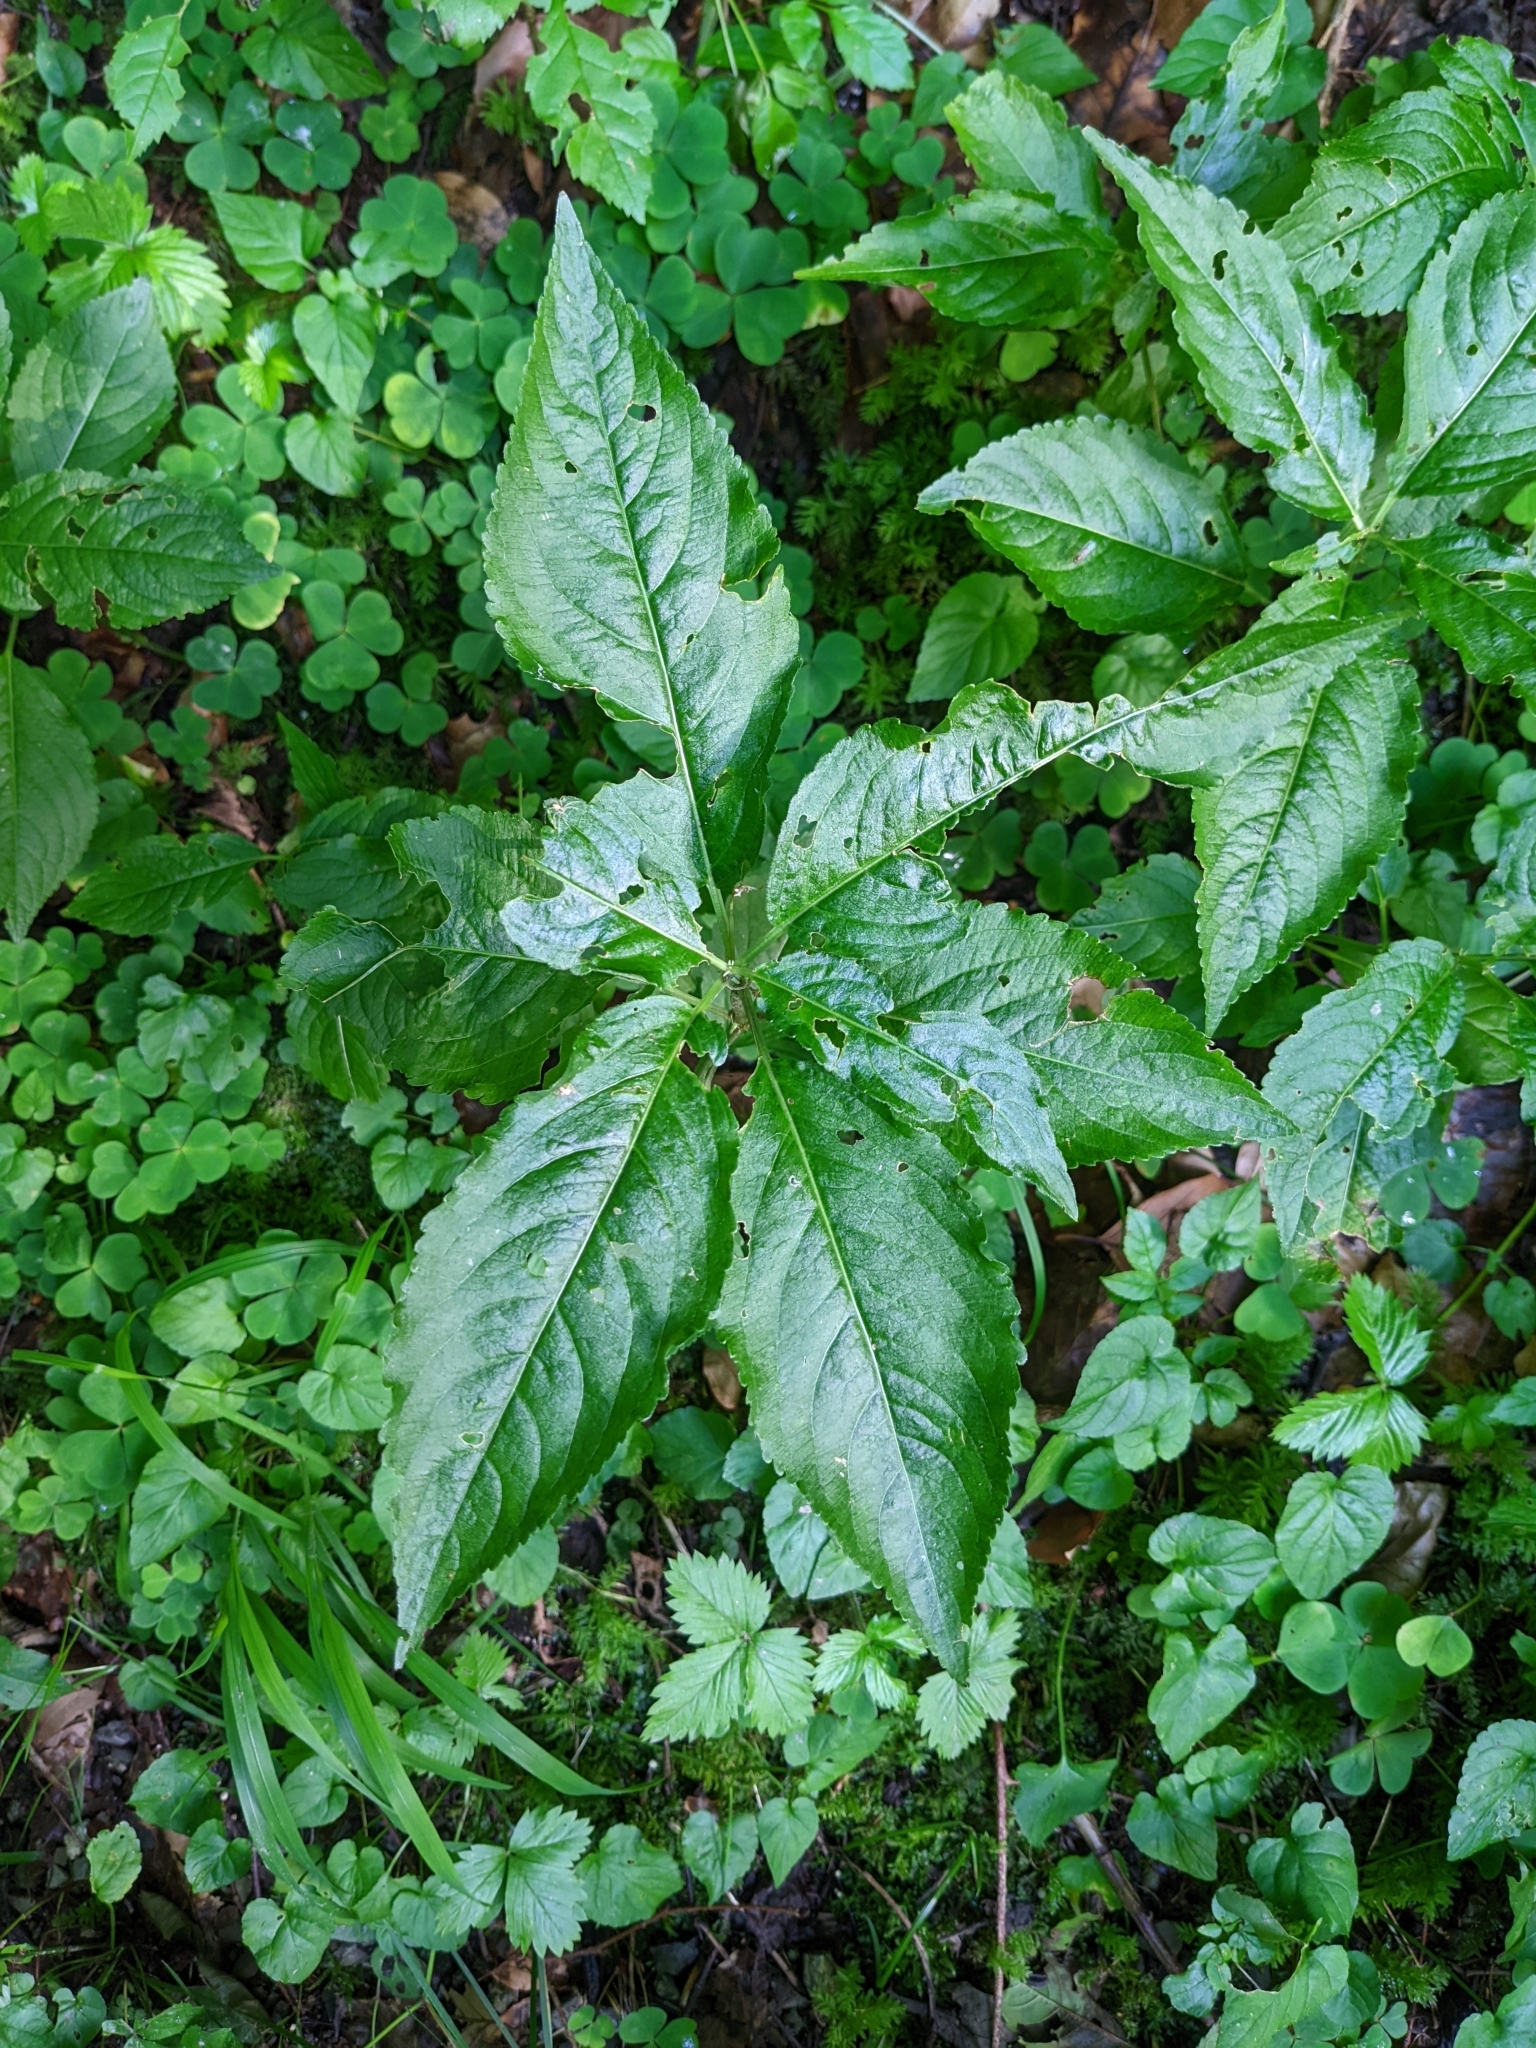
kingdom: Plantae
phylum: Tracheophyta
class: Magnoliopsida
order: Malpighiales
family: Euphorbiaceae
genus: Mercurialis
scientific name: Mercurialis perennis
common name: Dog mercury
